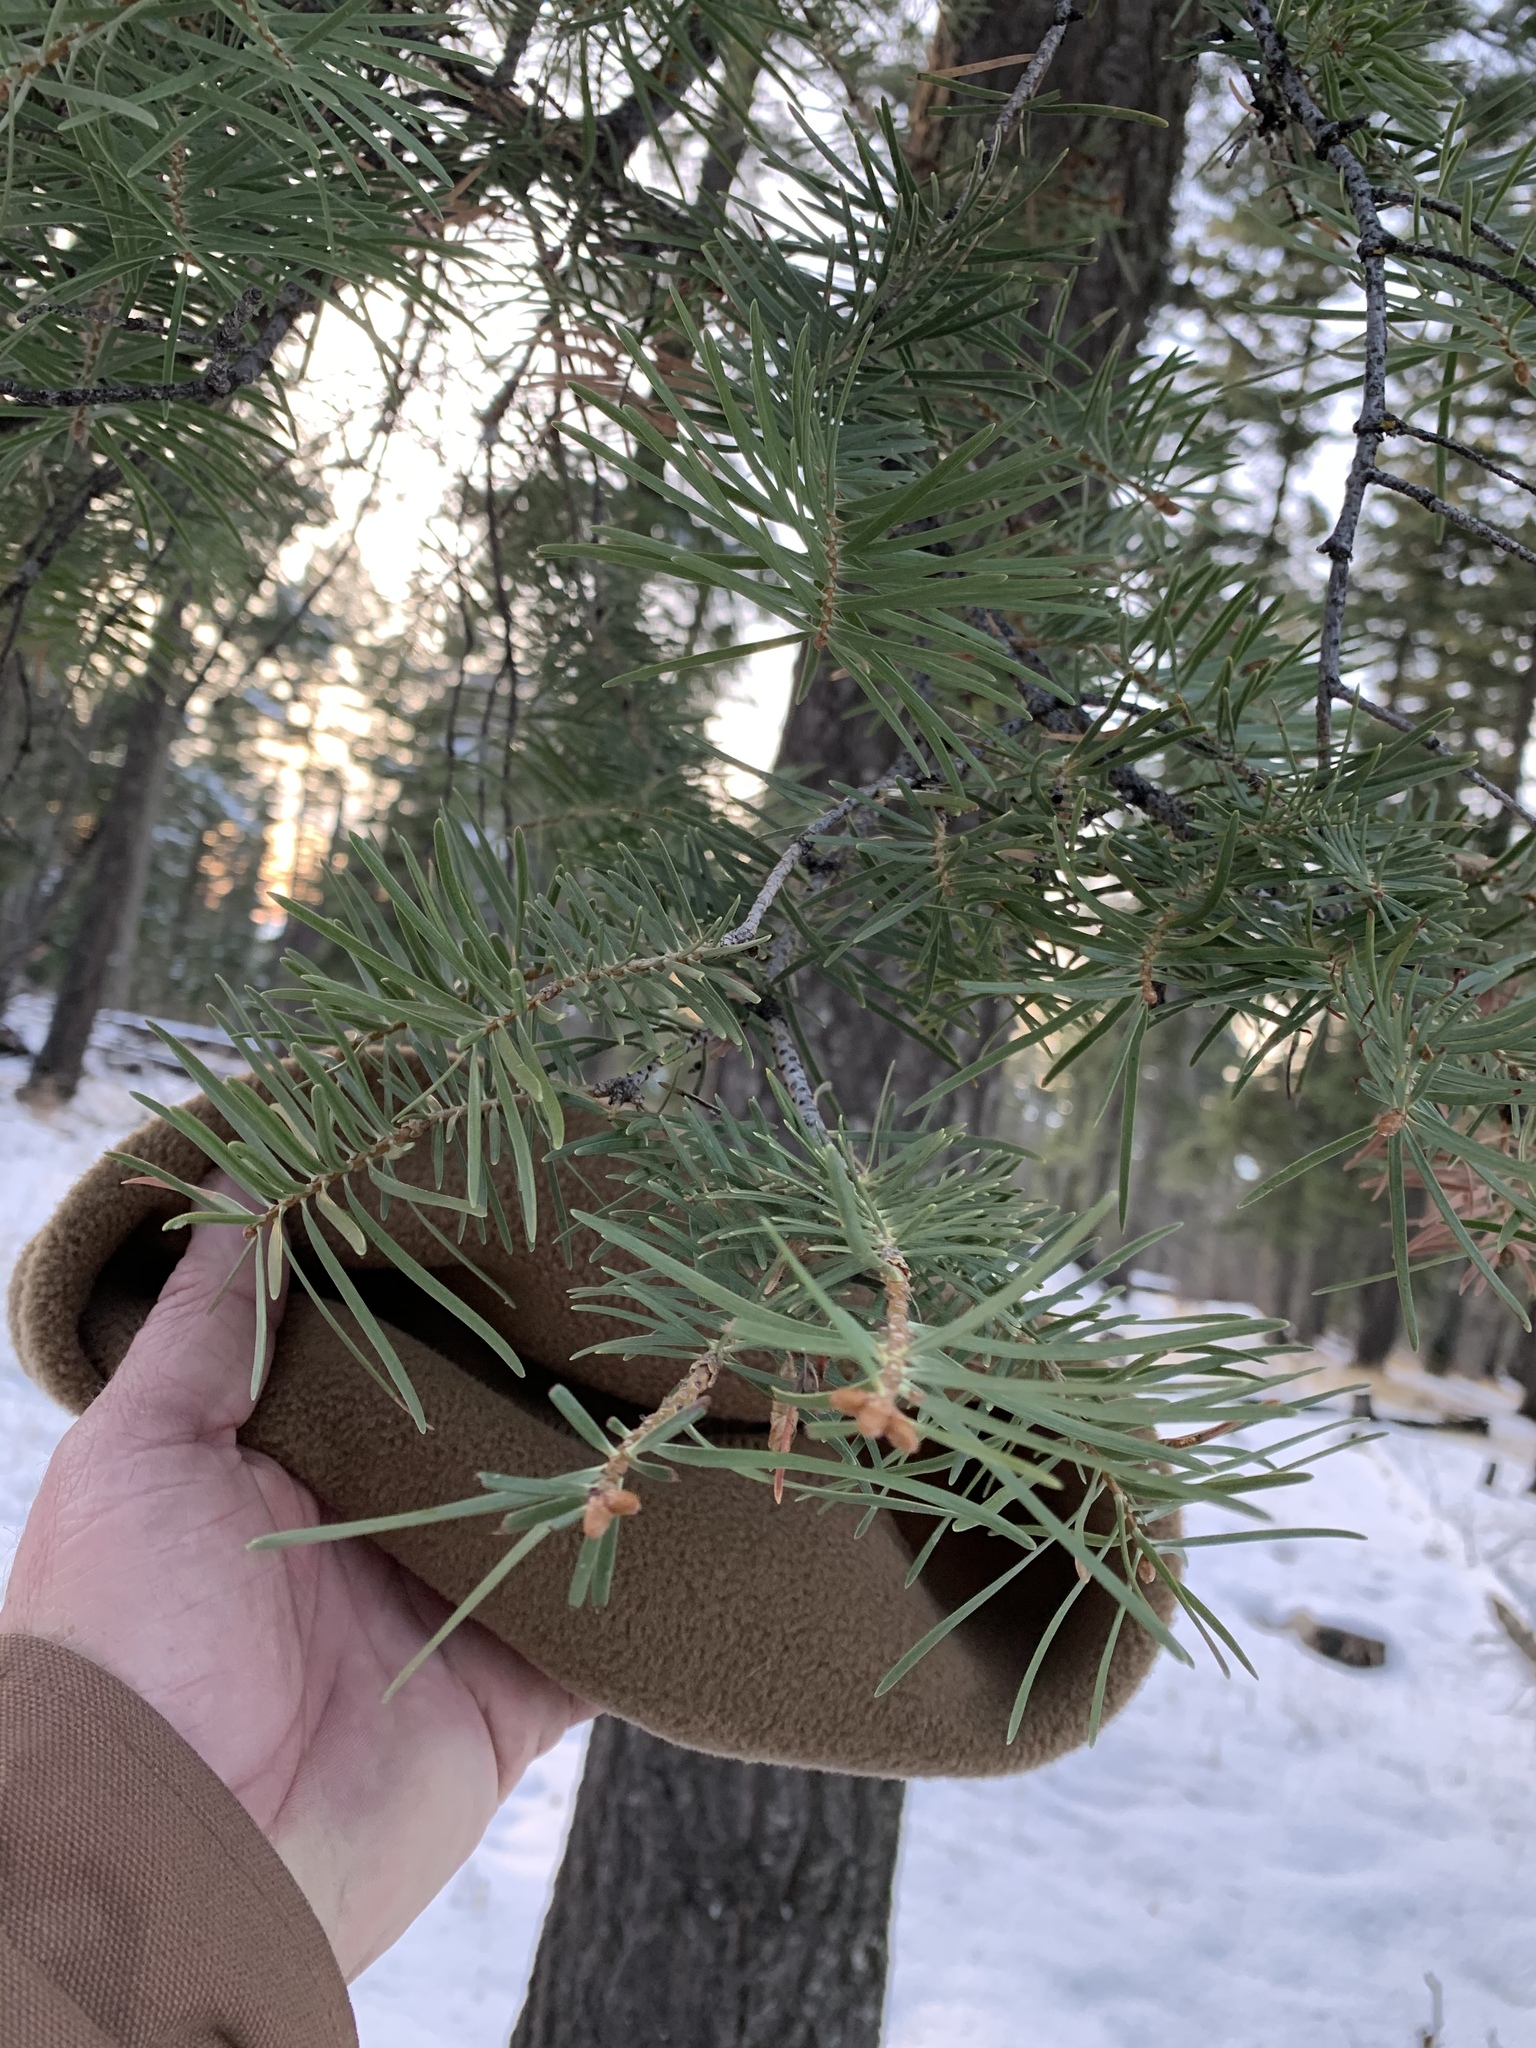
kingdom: Plantae
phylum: Tracheophyta
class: Pinopsida
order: Pinales
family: Pinaceae
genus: Abies
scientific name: Abies concolor
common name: Colorado fir
